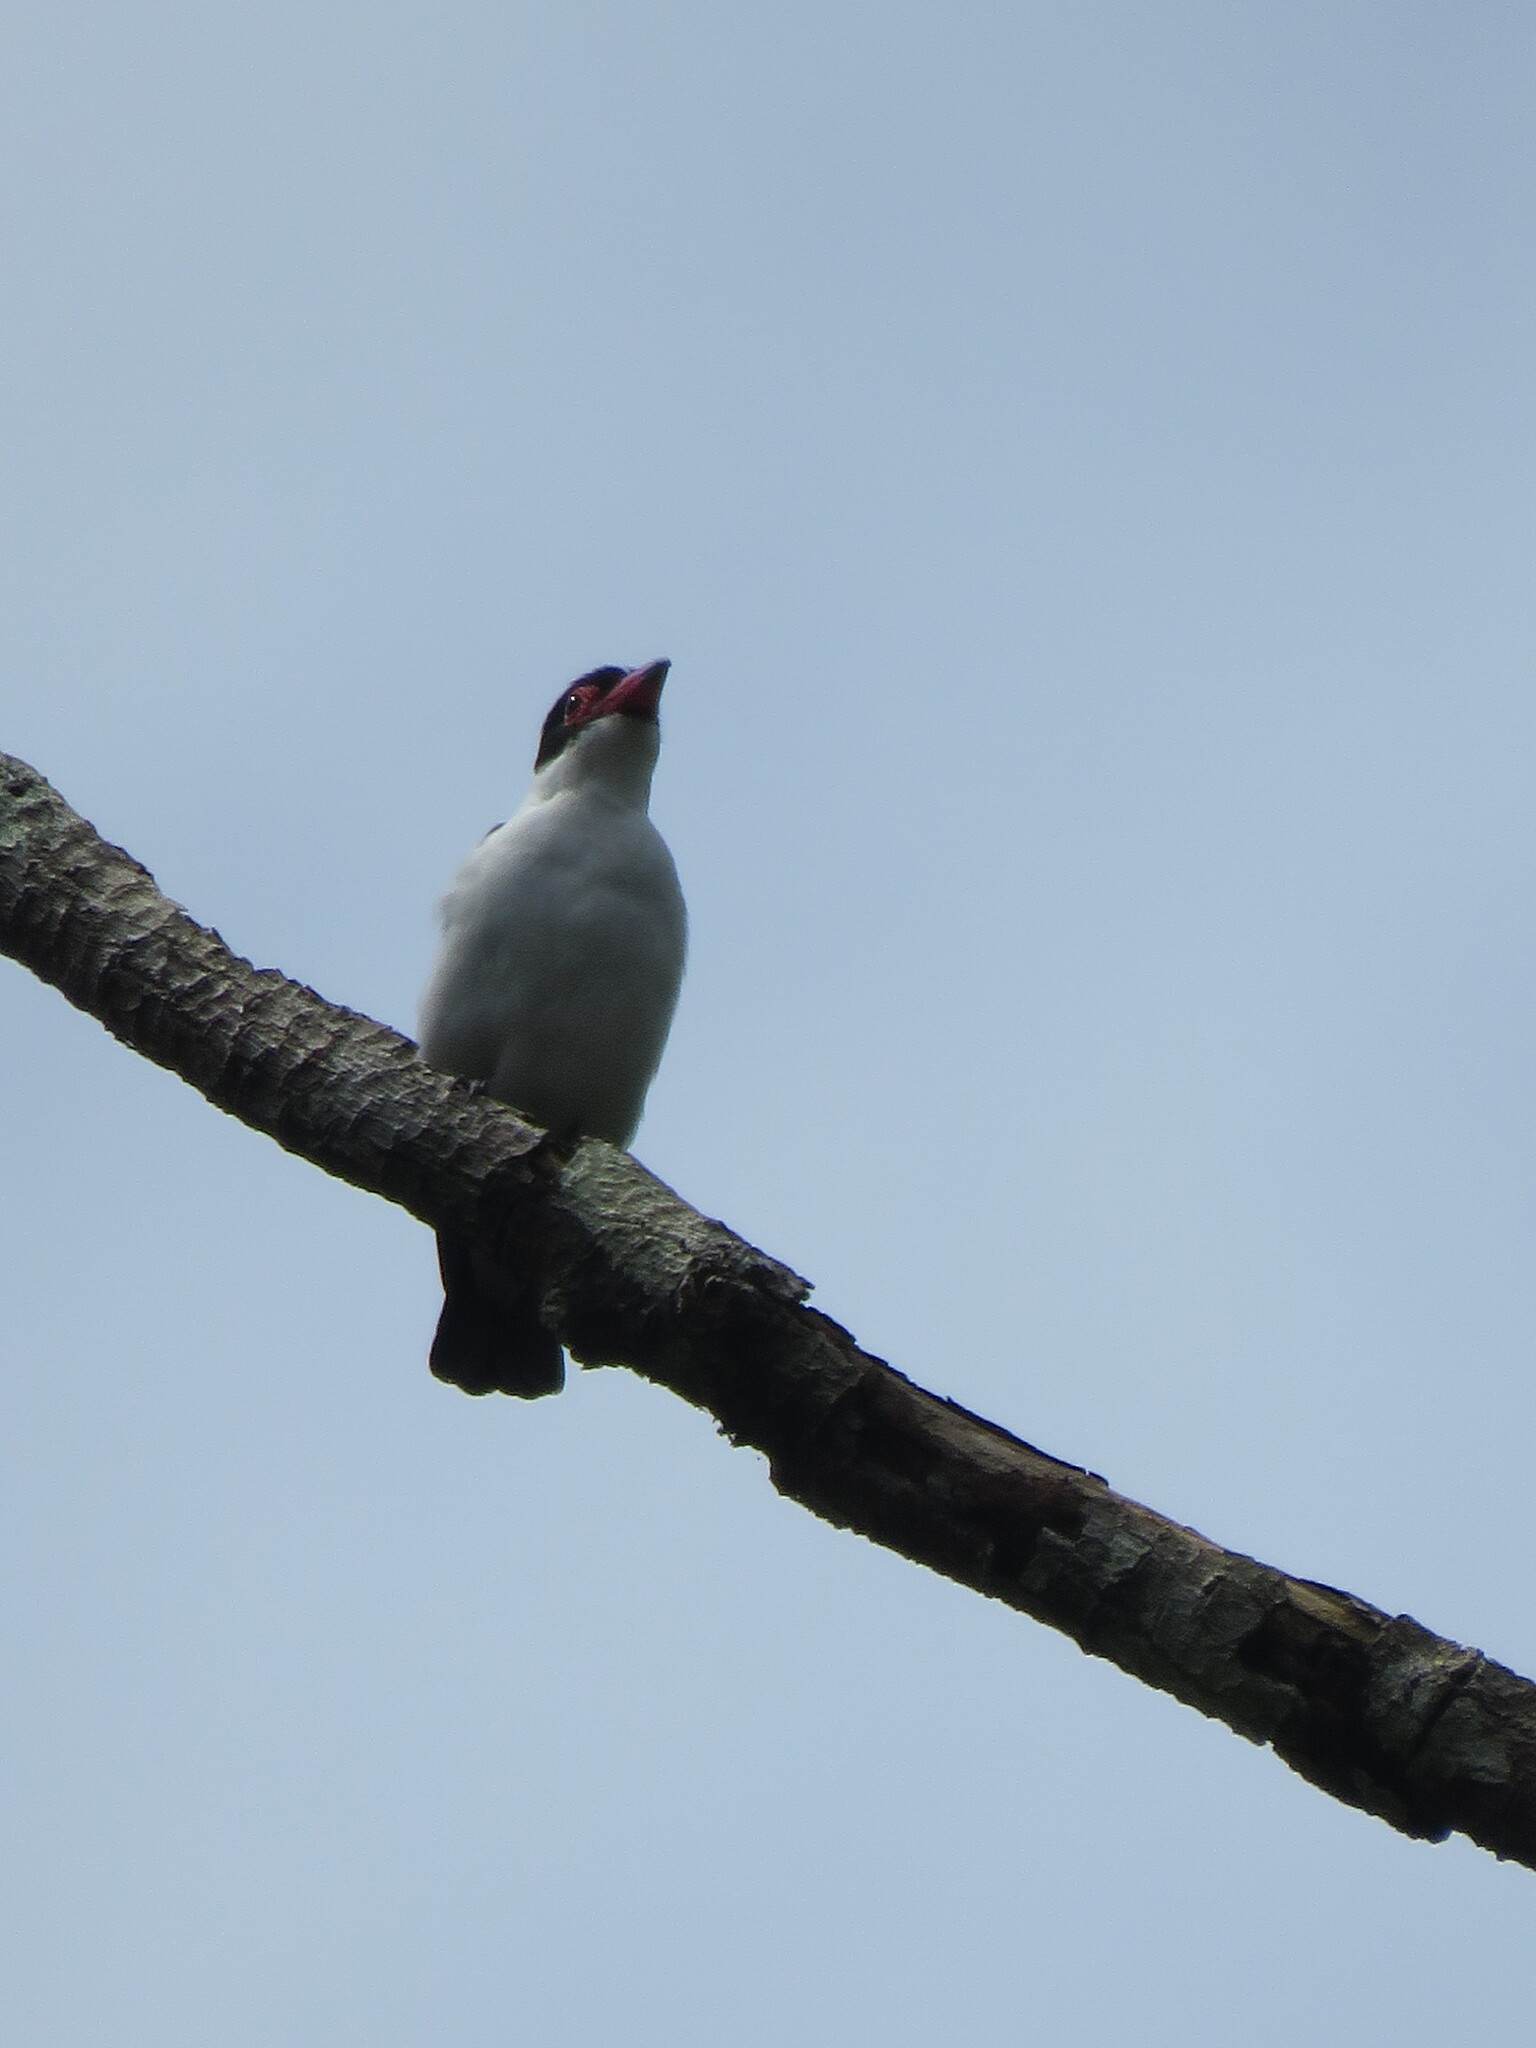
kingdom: Animalia
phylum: Chordata
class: Aves
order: Passeriformes
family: Cotingidae
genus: Tityra
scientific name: Tityra cayana
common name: Black-tailed tityra
